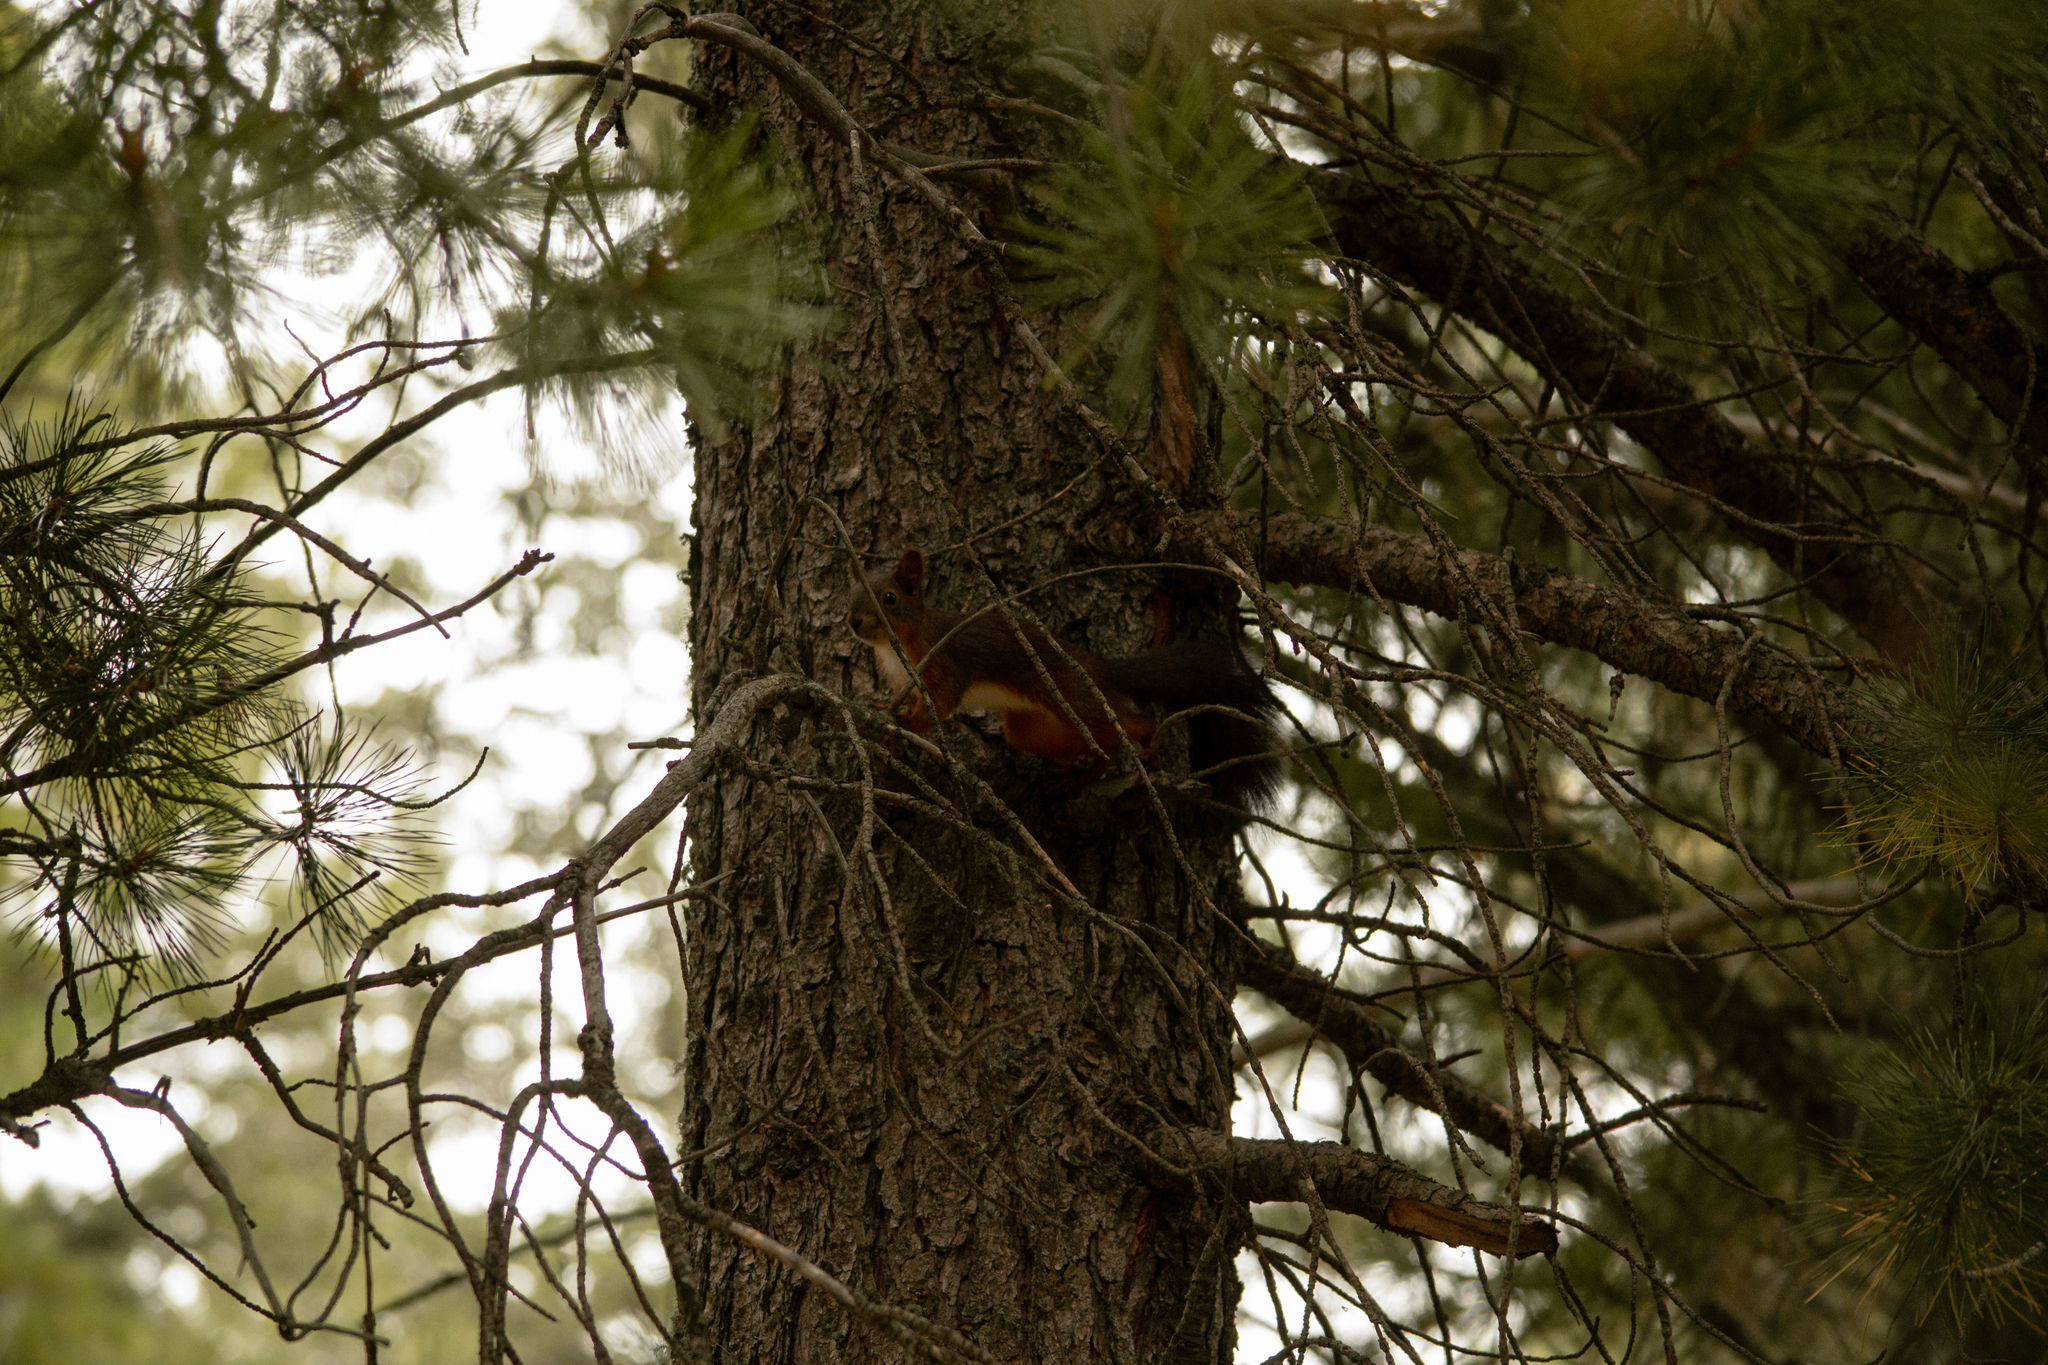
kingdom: Animalia
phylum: Chordata
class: Mammalia
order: Rodentia
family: Sciuridae
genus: Sciurus
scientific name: Sciurus vulgaris
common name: Eurasian red squirrel
